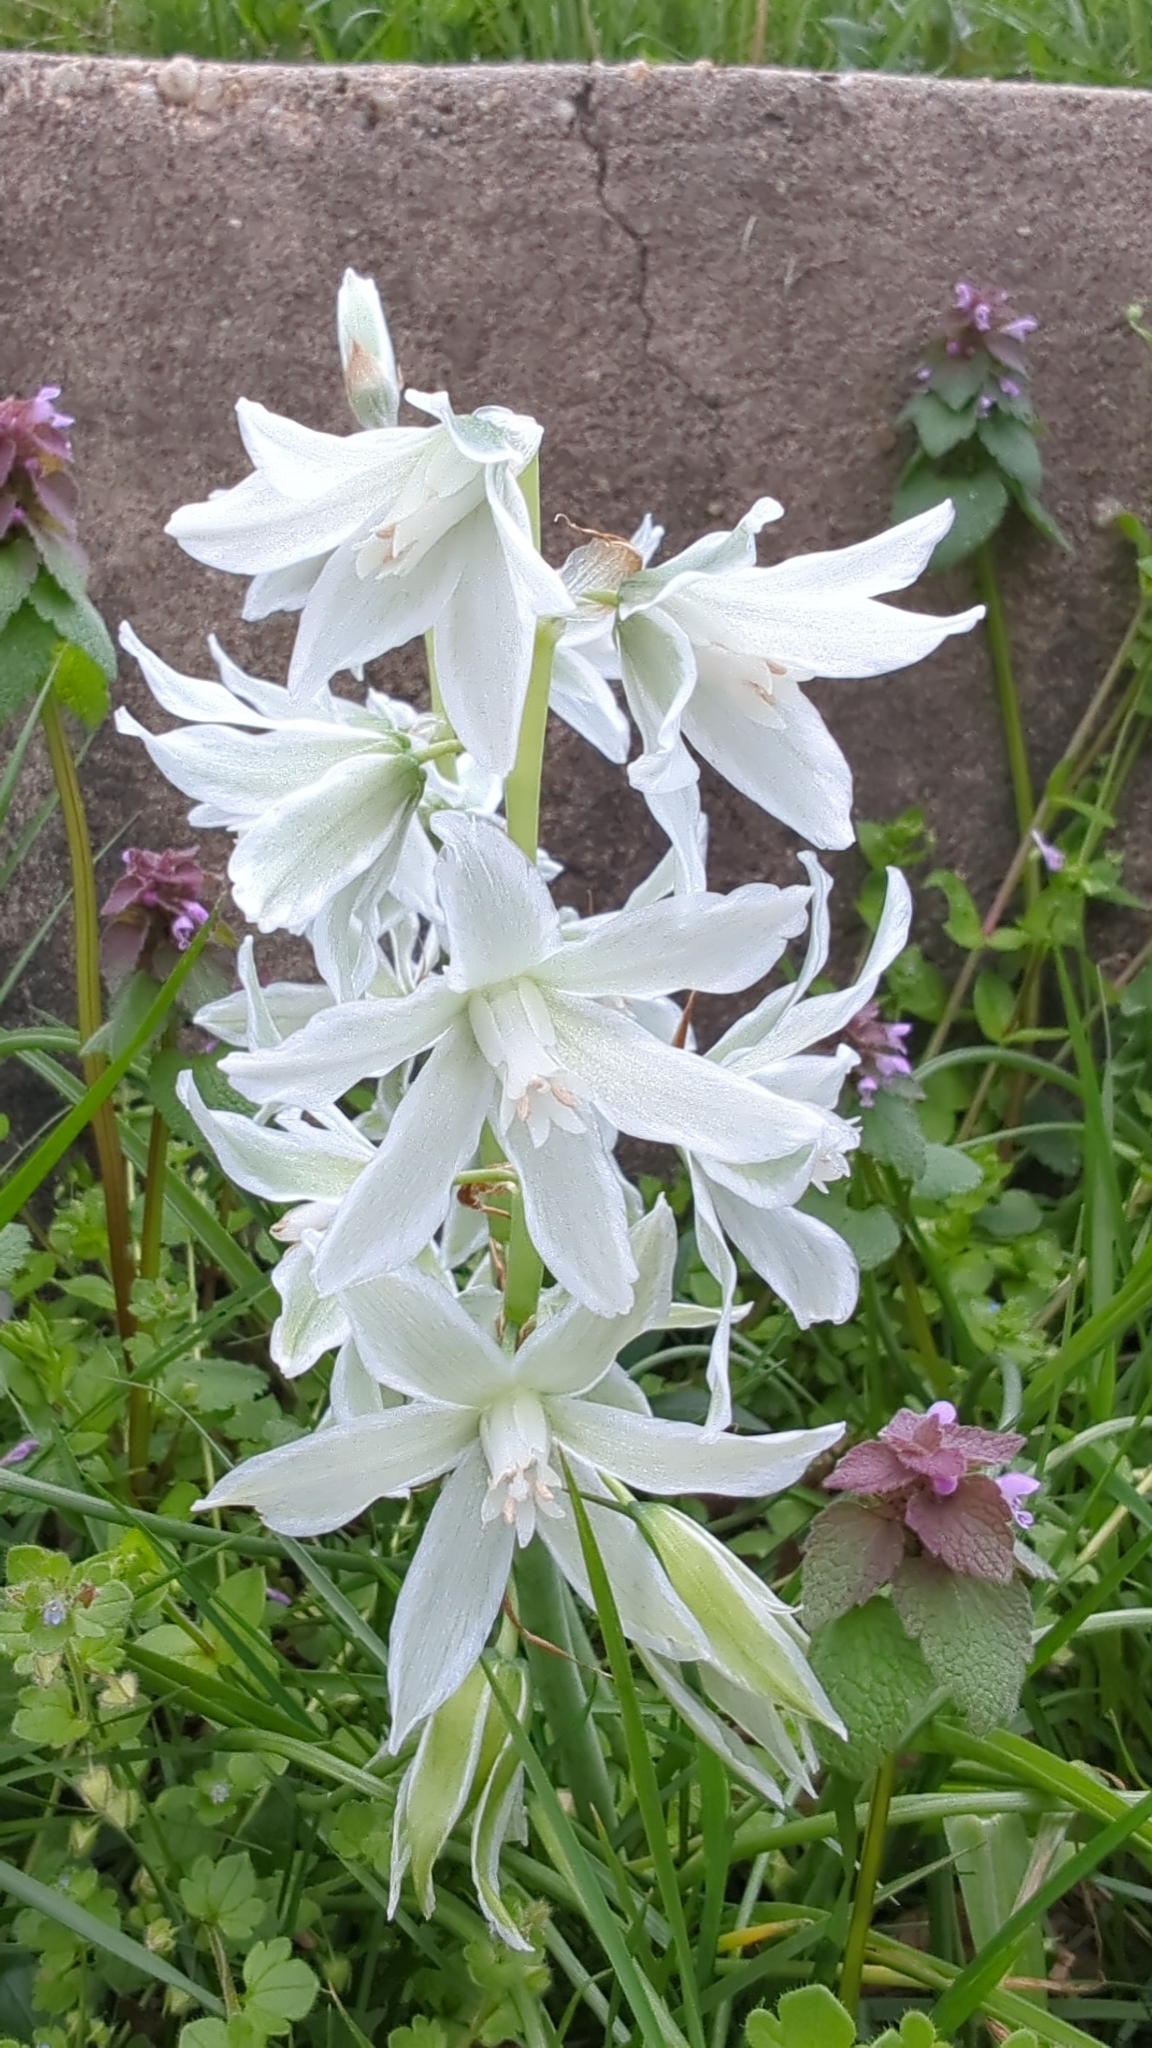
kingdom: Plantae
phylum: Tracheophyta
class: Liliopsida
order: Asparagales
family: Asparagaceae
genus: Ornithogalum
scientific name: Ornithogalum nutans
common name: Drooping star-of-bethlehem
